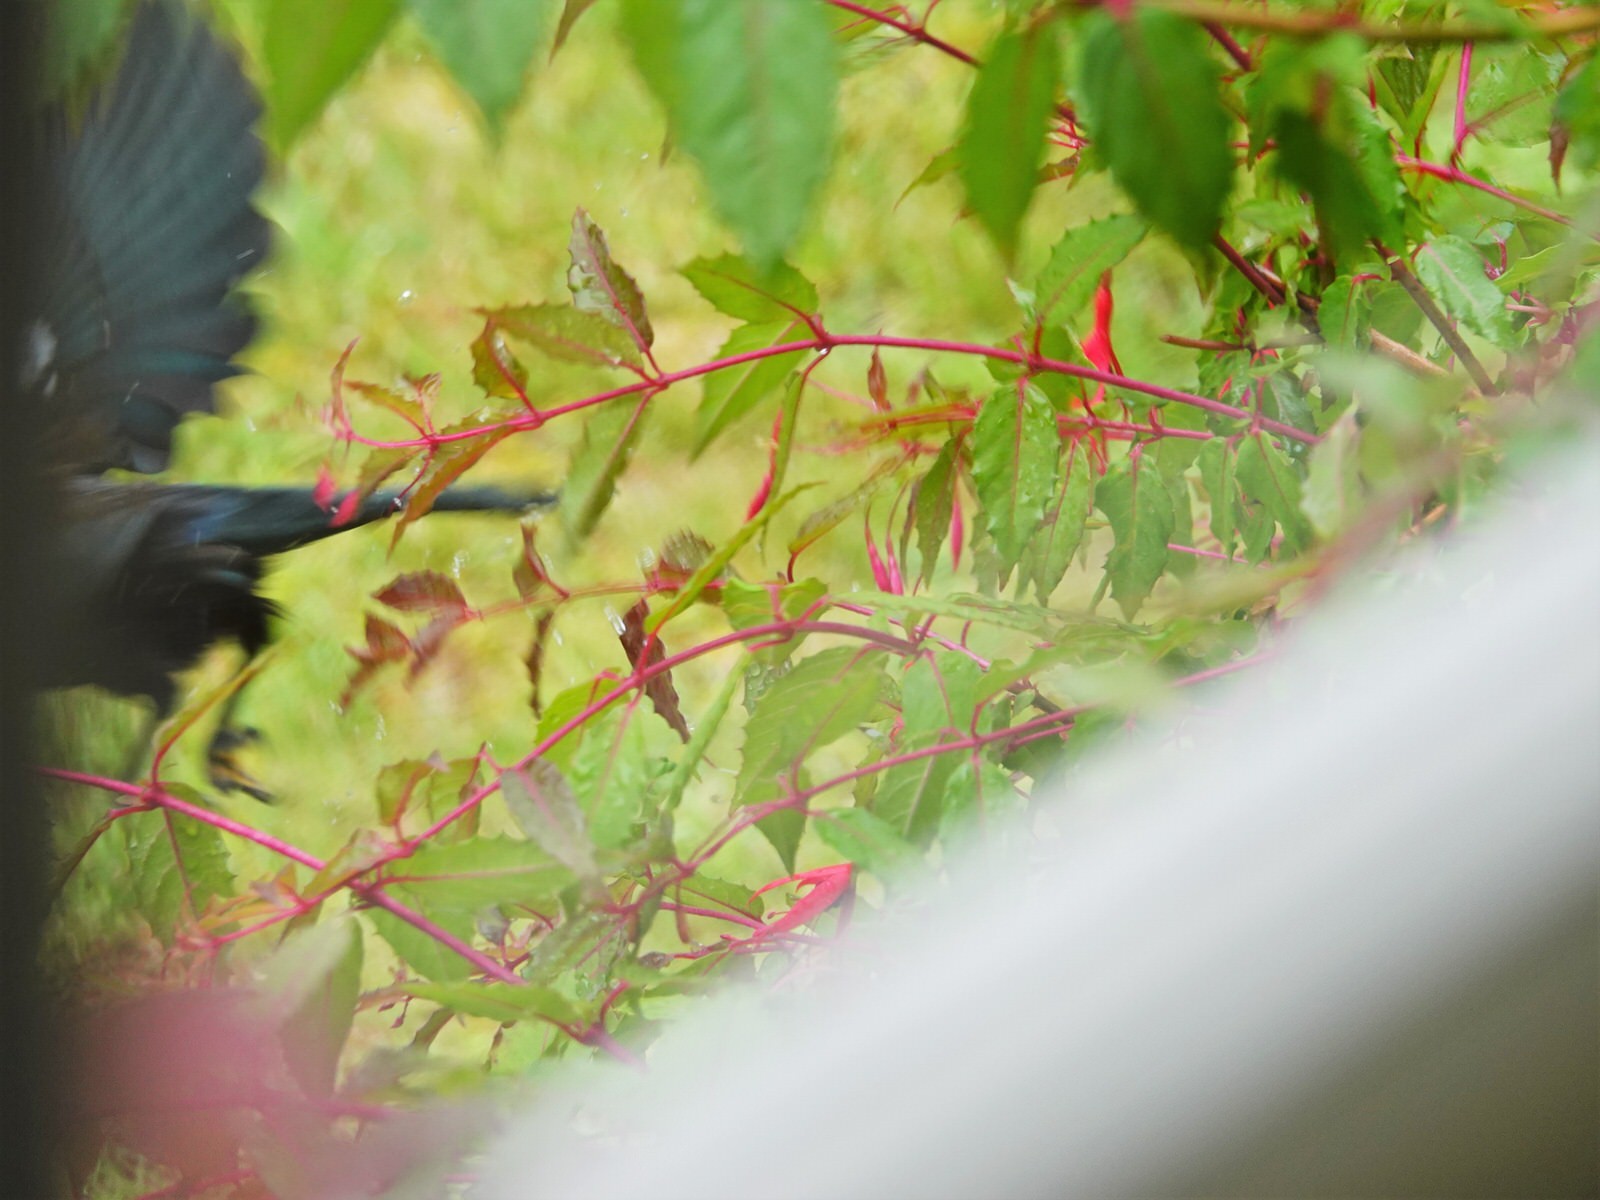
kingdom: Animalia
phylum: Chordata
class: Aves
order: Passeriformes
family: Meliphagidae
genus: Prosthemadera
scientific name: Prosthemadera novaeseelandiae
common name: Tui
